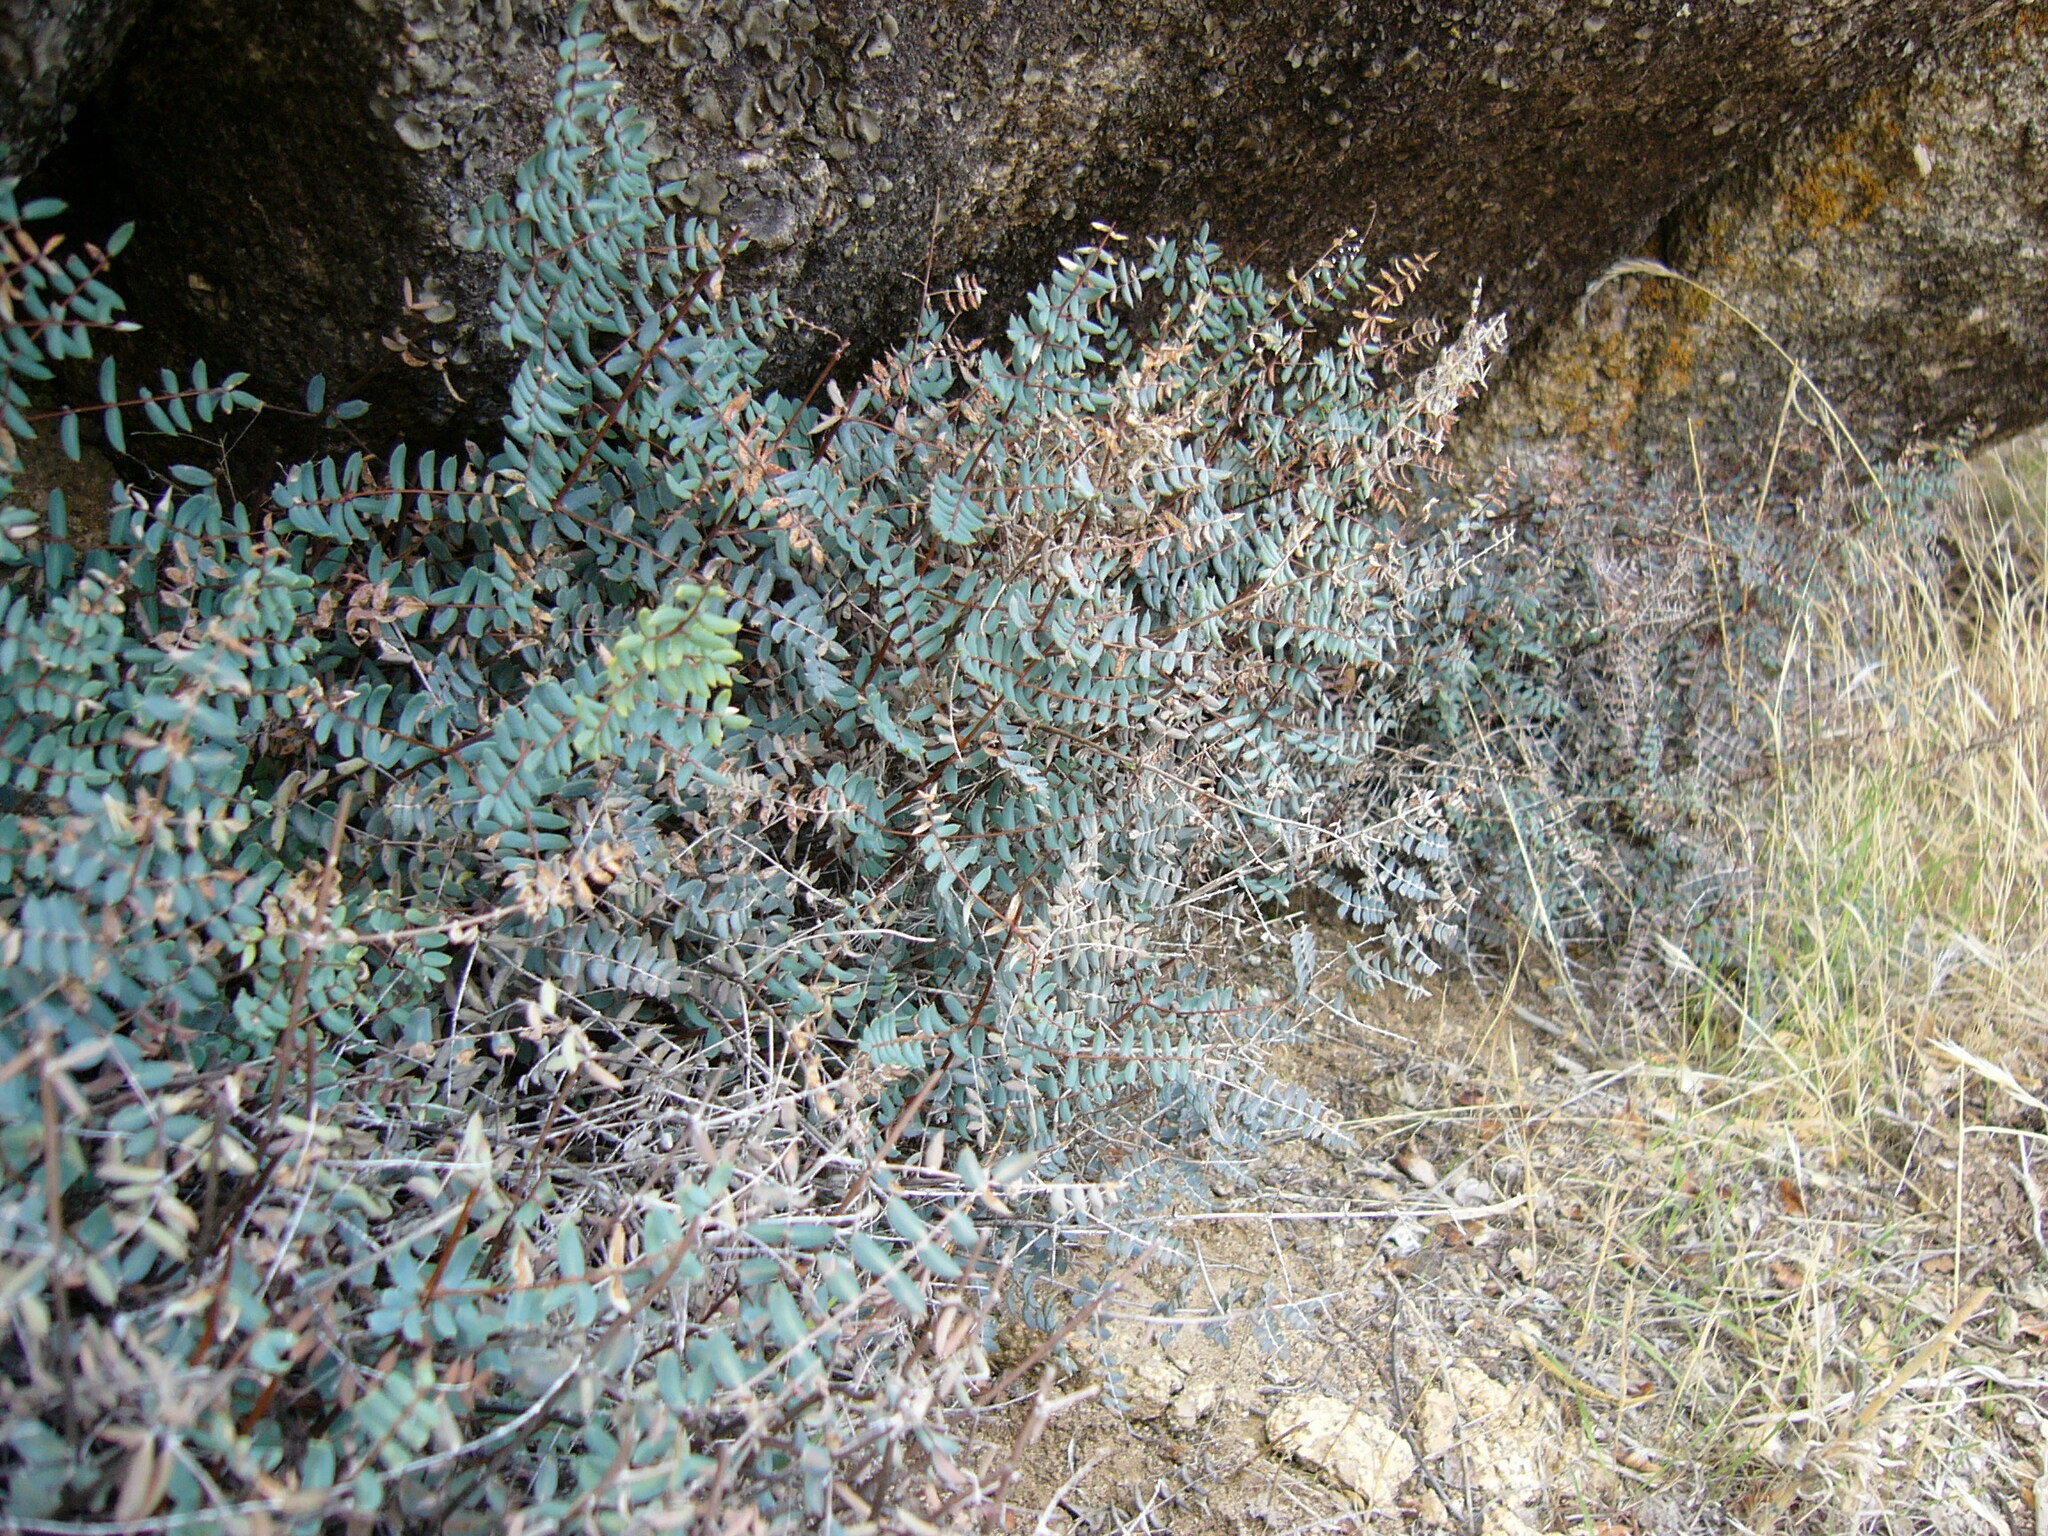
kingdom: Plantae
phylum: Tracheophyta
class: Polypodiopsida
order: Polypodiales
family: Pteridaceae
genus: Pellaea
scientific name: Pellaea truncata
